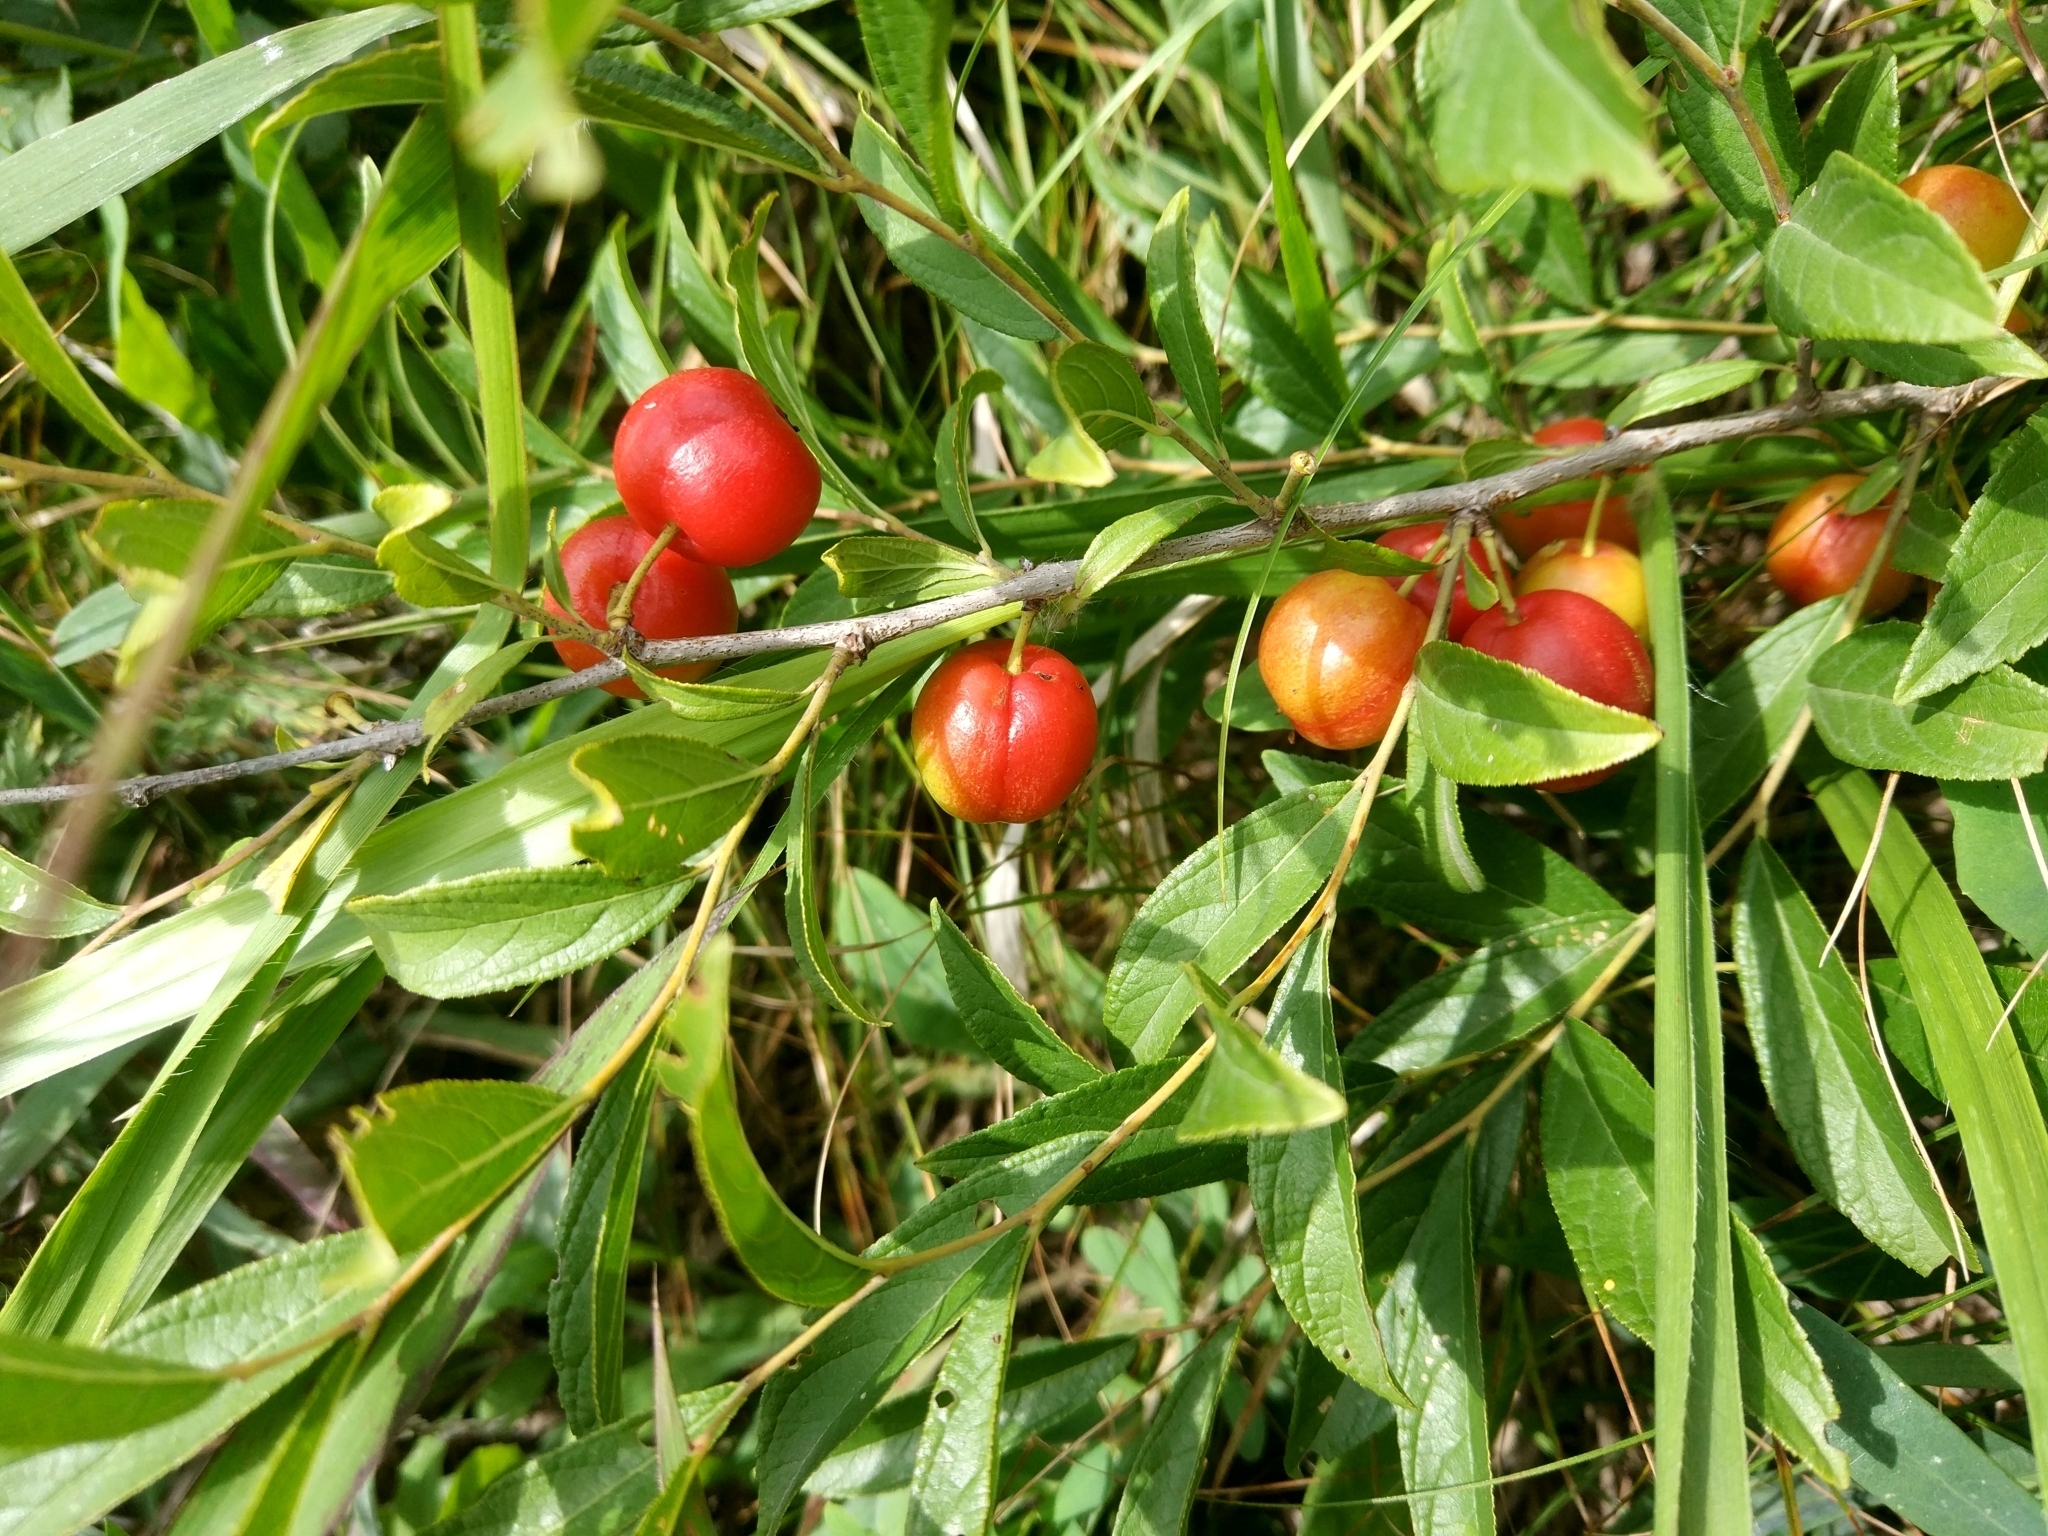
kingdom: Plantae
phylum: Tracheophyta
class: Magnoliopsida
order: Rosales
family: Rosaceae
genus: Prunus
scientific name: Prunus humilis
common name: Humble bush cherry
